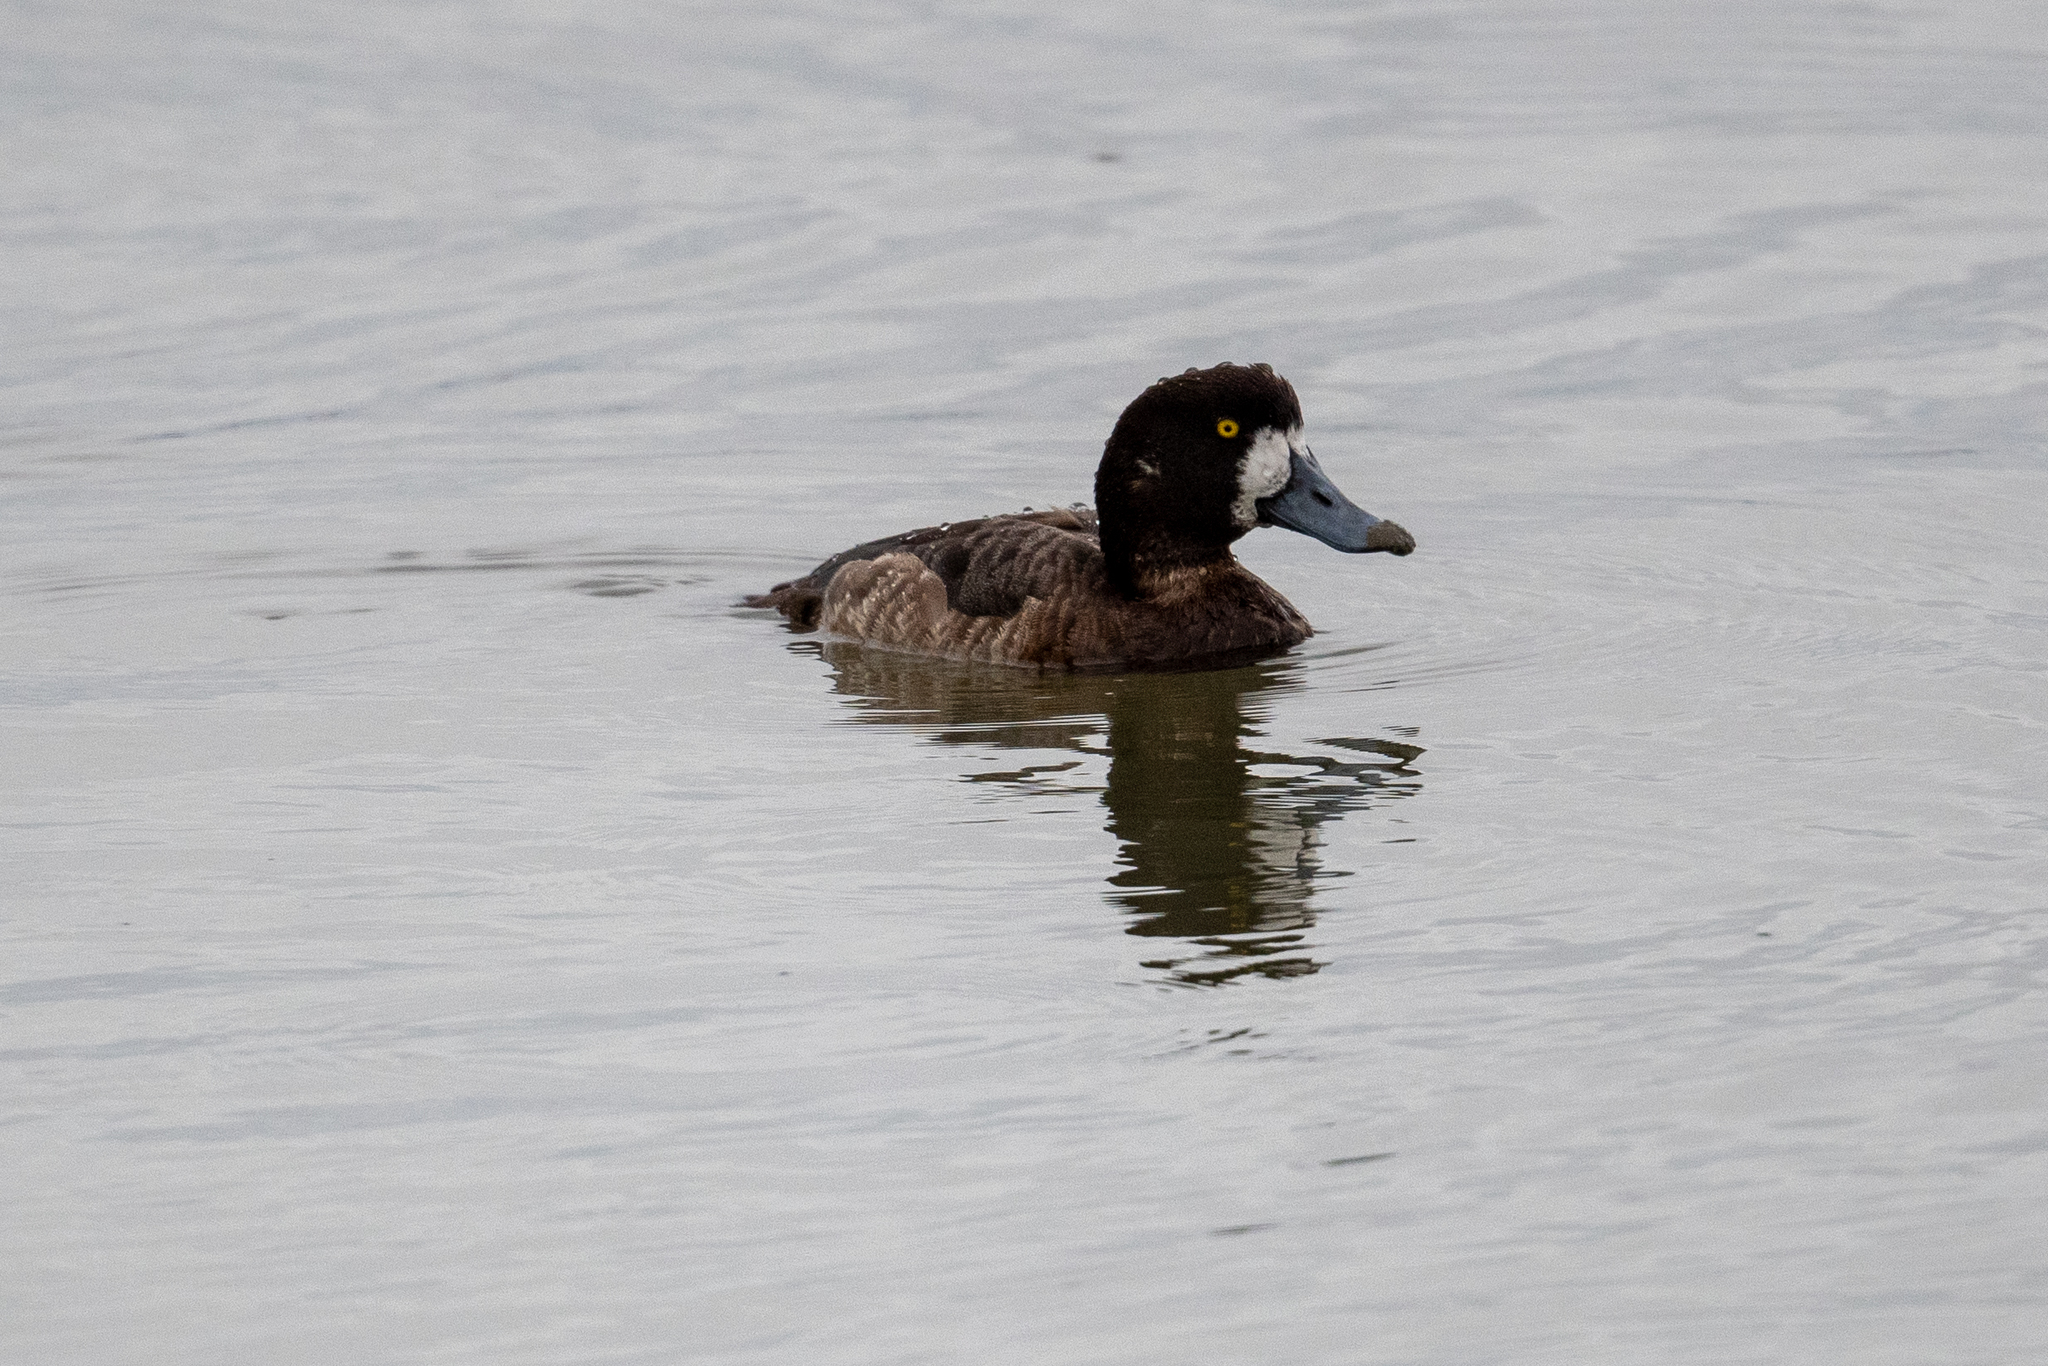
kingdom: Animalia
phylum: Chordata
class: Aves
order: Anseriformes
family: Anatidae
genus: Aythya
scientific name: Aythya marila
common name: Greater scaup
